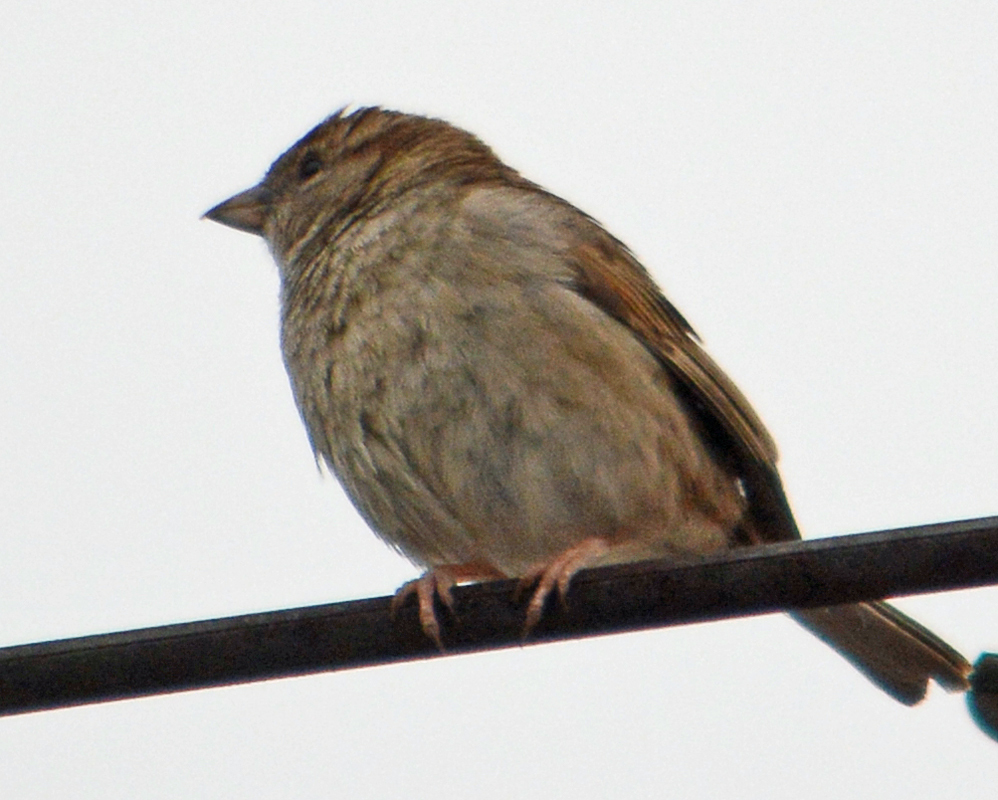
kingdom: Animalia
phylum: Chordata
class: Aves
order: Passeriformes
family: Passeridae
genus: Passer
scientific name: Passer domesticus
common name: House sparrow
